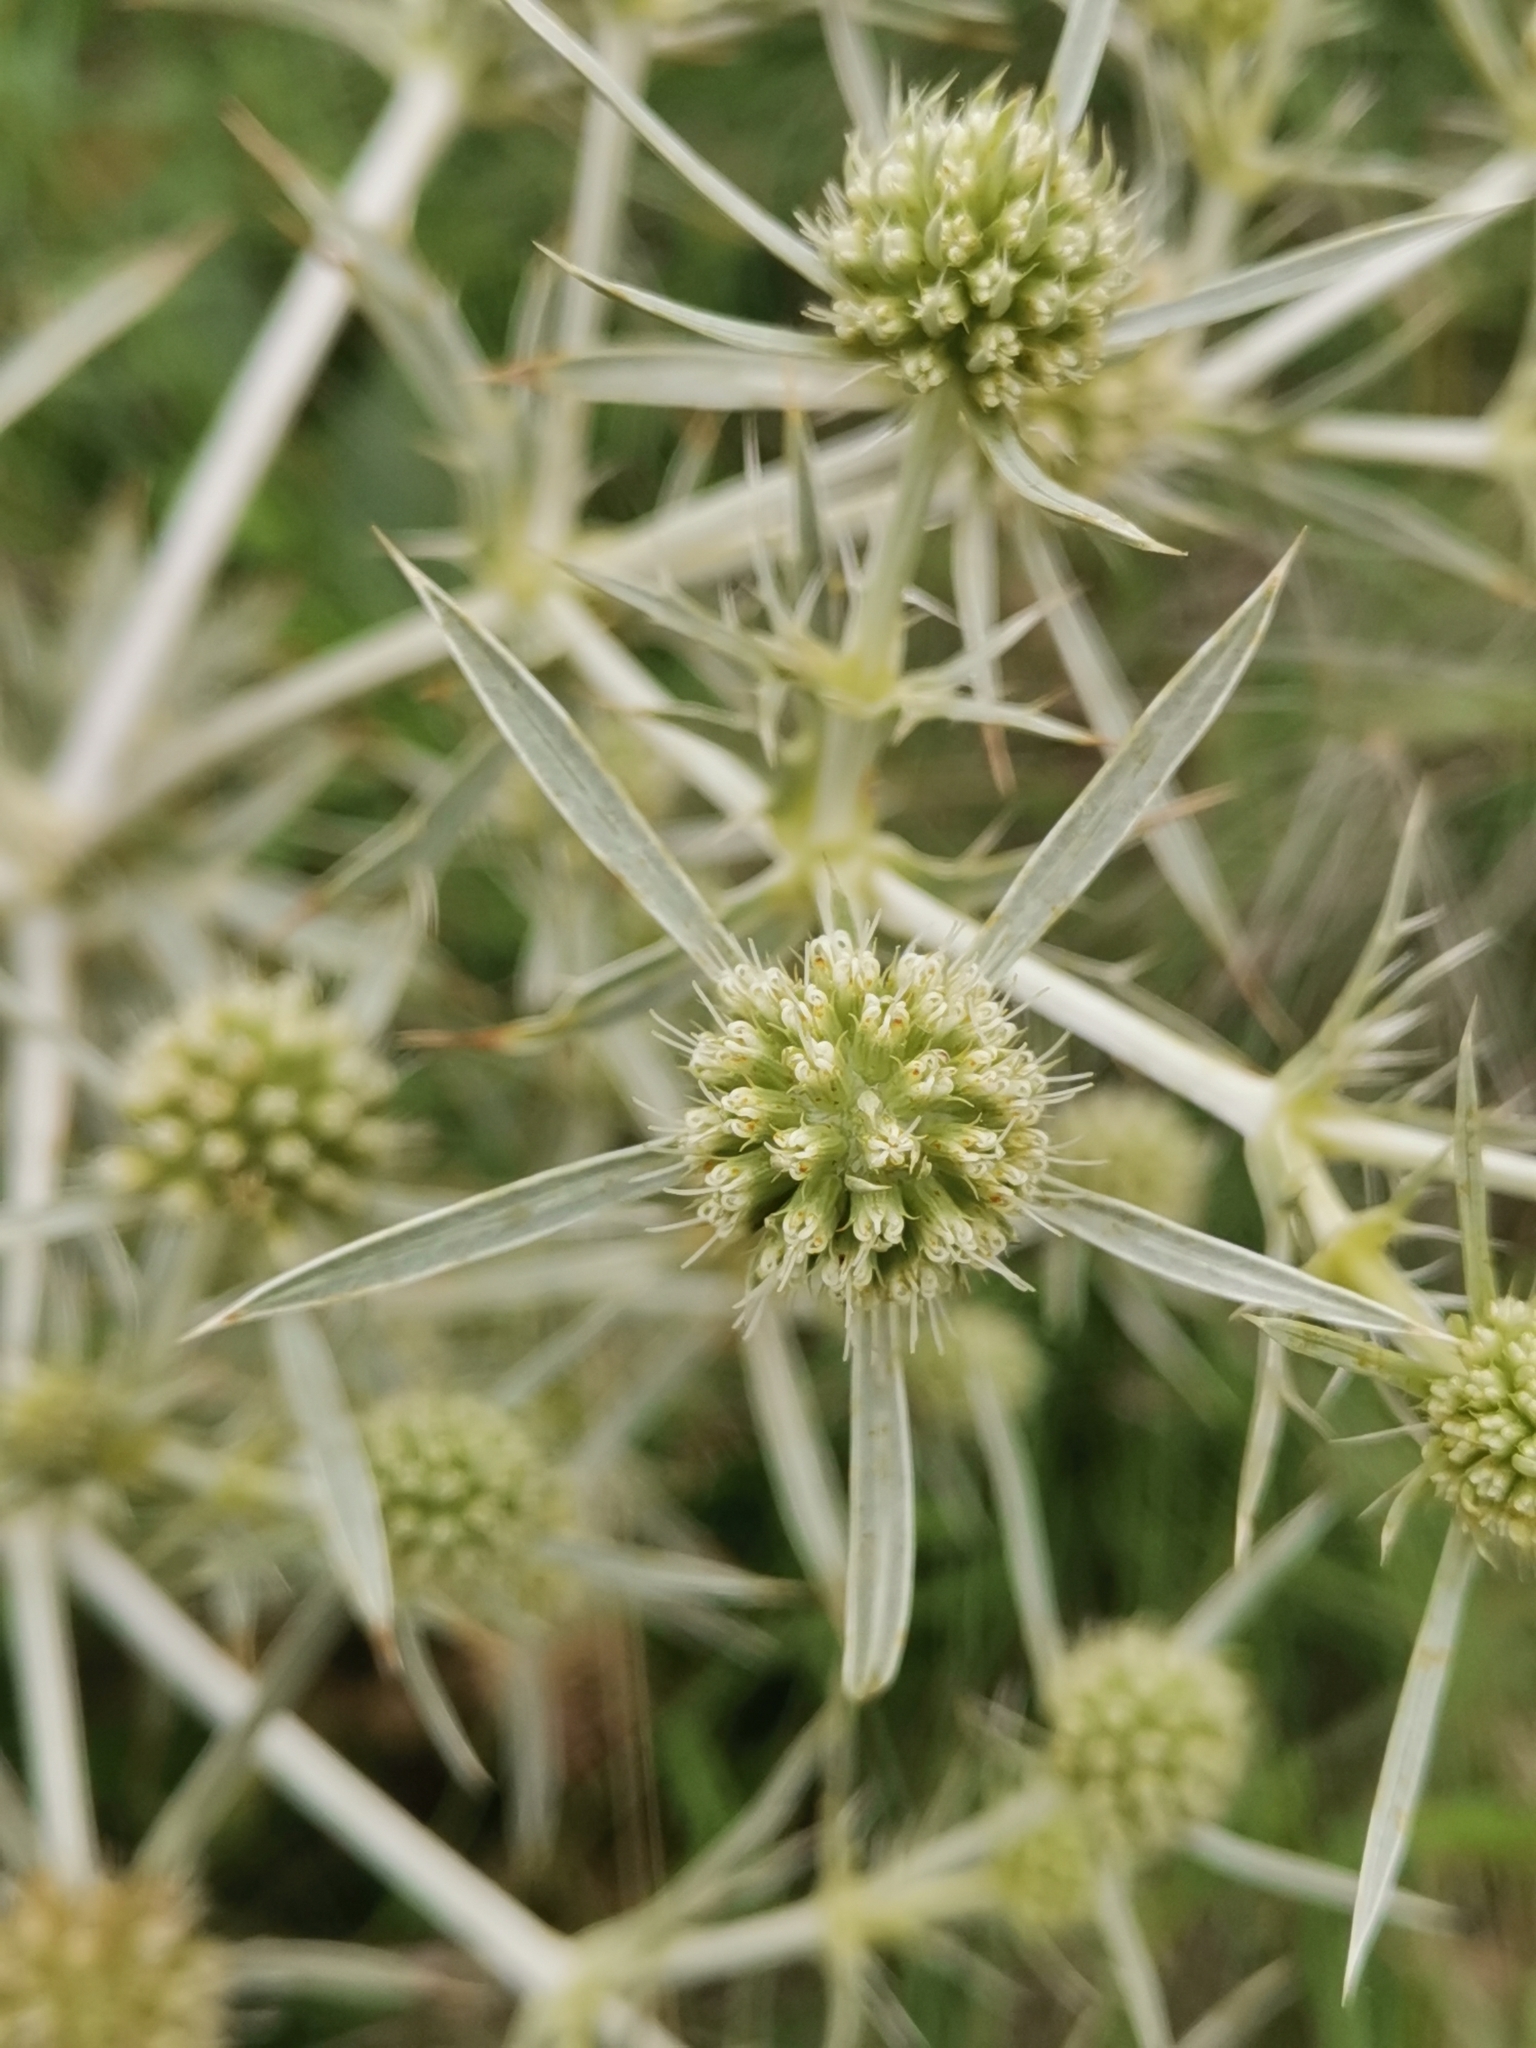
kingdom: Plantae
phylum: Tracheophyta
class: Magnoliopsida
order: Apiales
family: Apiaceae
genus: Eryngium
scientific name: Eryngium campestre
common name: Field eryngo
